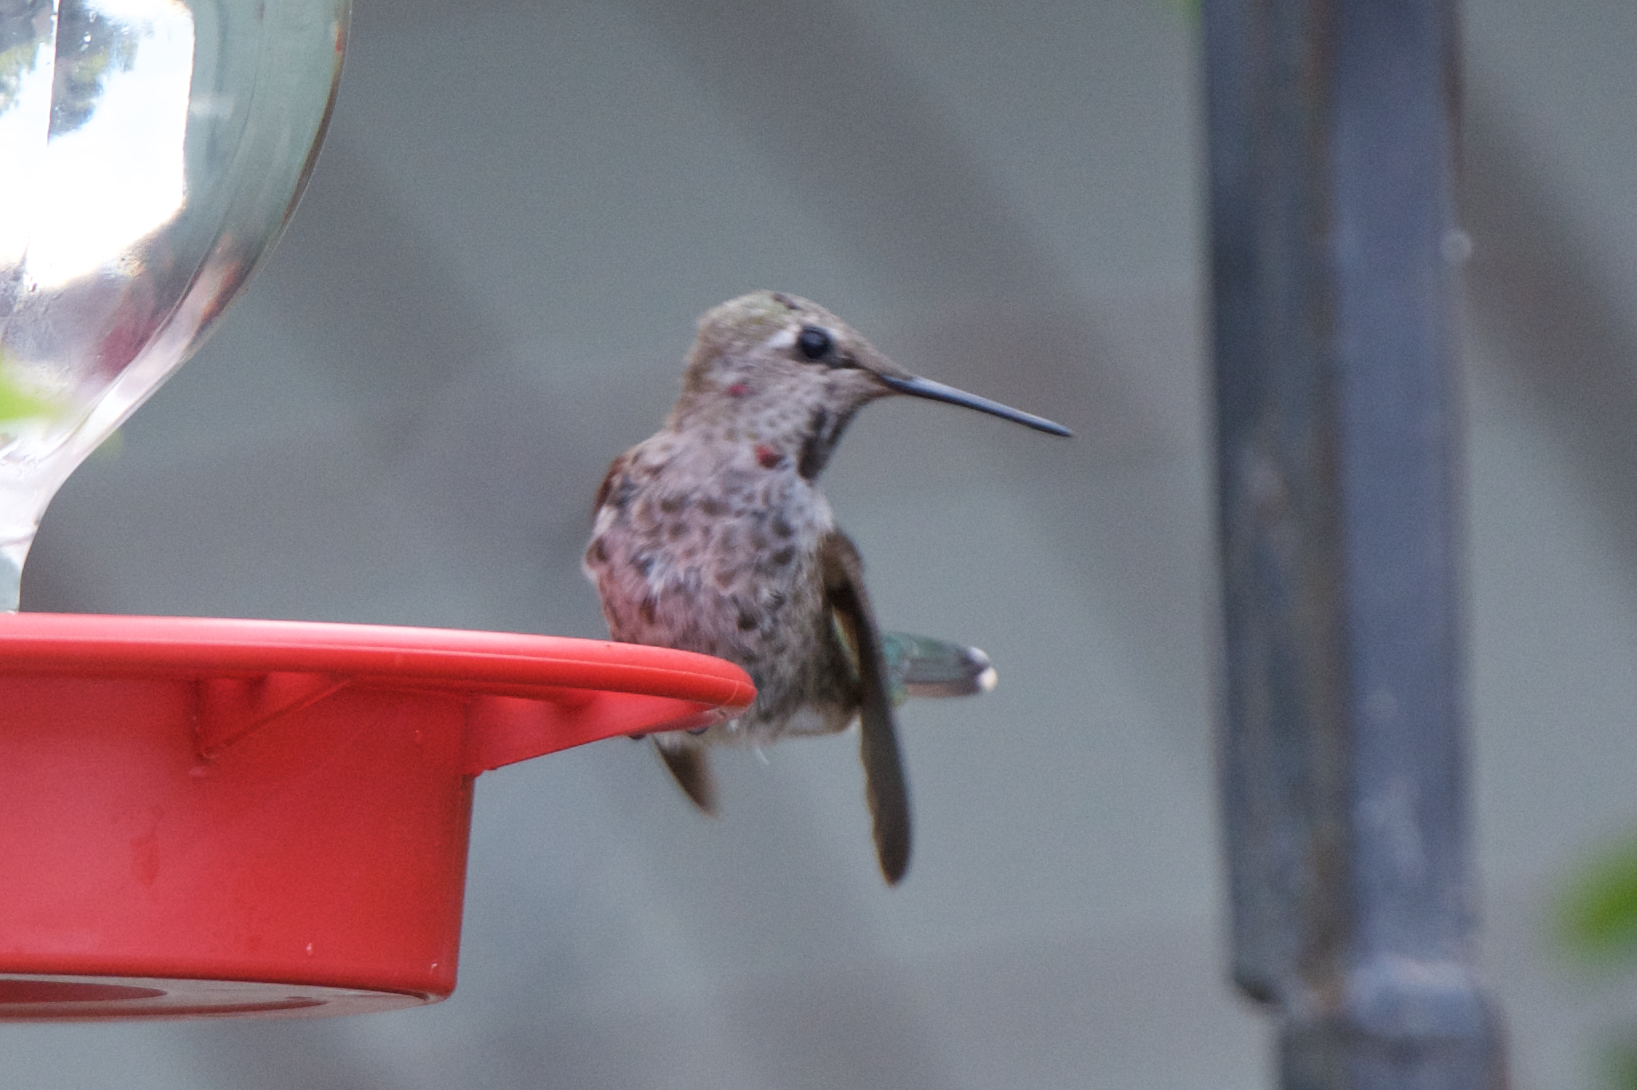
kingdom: Animalia
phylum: Chordata
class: Aves
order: Apodiformes
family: Trochilidae
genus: Calypte
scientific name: Calypte anna
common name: Anna's hummingbird
